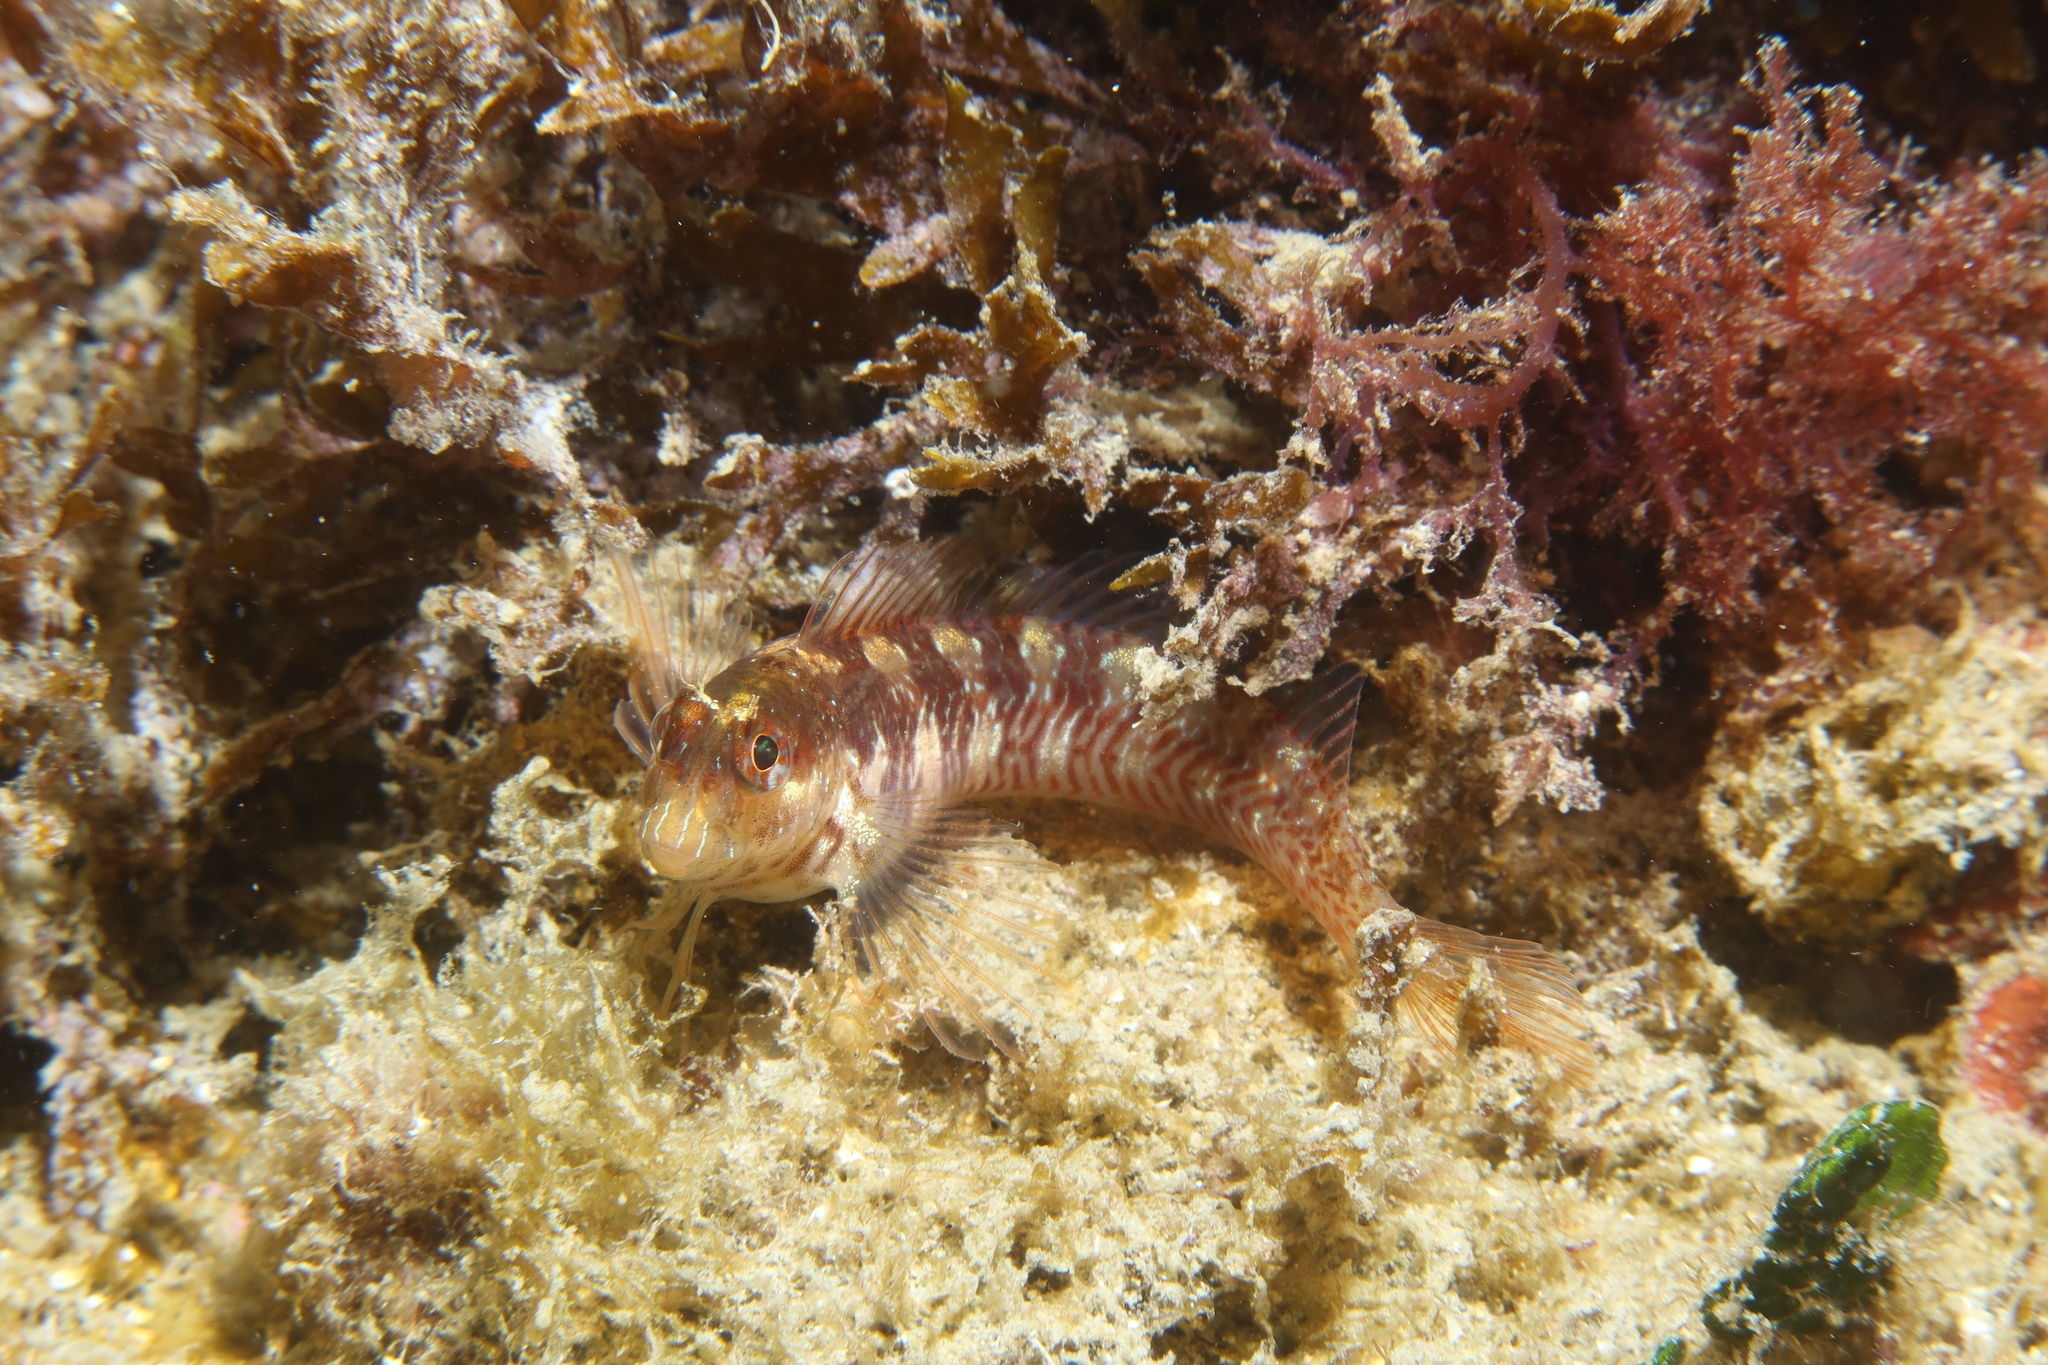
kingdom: Animalia
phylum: Chordata
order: Perciformes
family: Blenniidae
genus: Parablennius
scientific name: Parablennius rouxi
